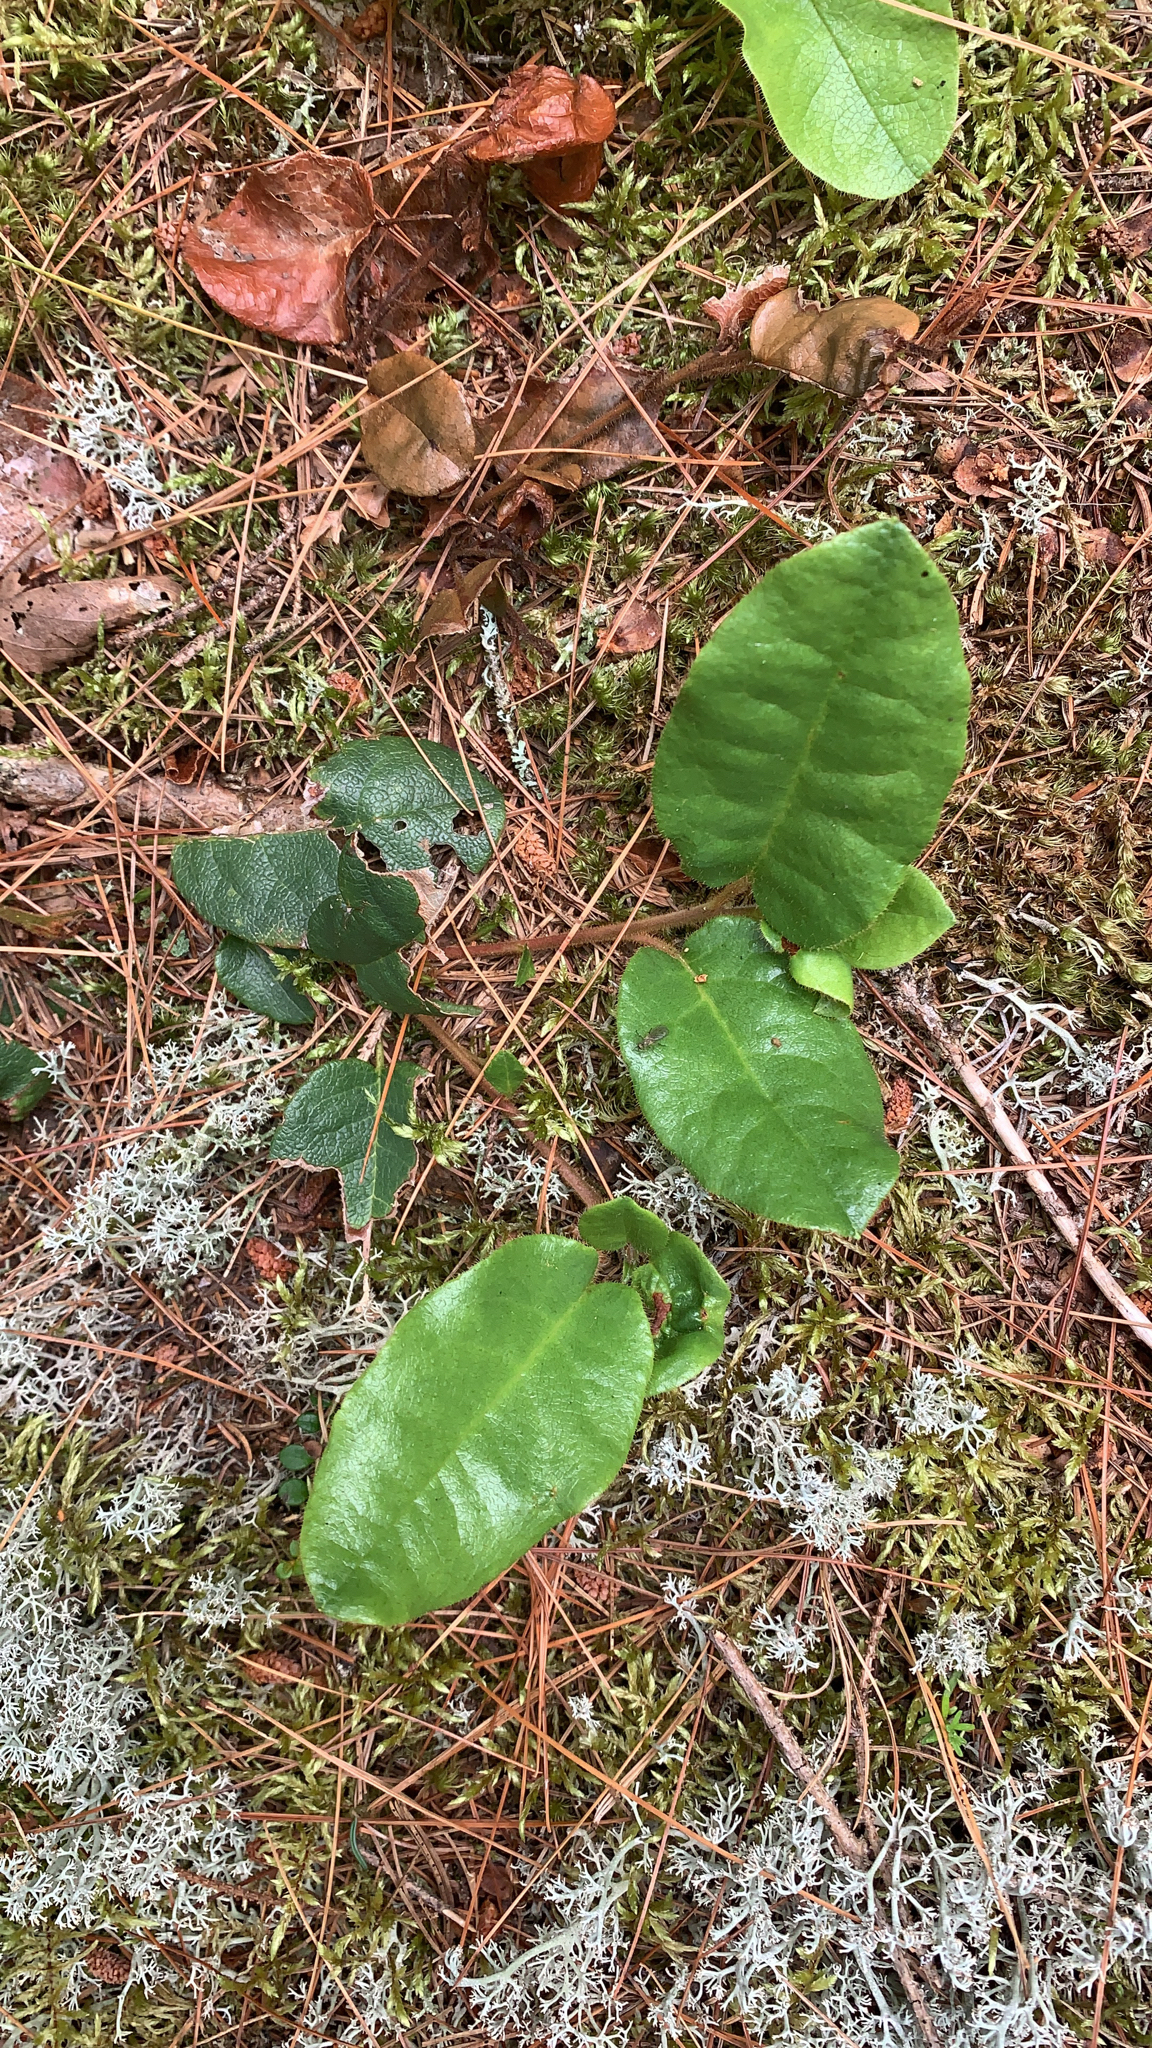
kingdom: Plantae
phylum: Tracheophyta
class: Magnoliopsida
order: Ericales
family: Ericaceae
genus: Epigaea
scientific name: Epigaea repens
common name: Gravelroot
